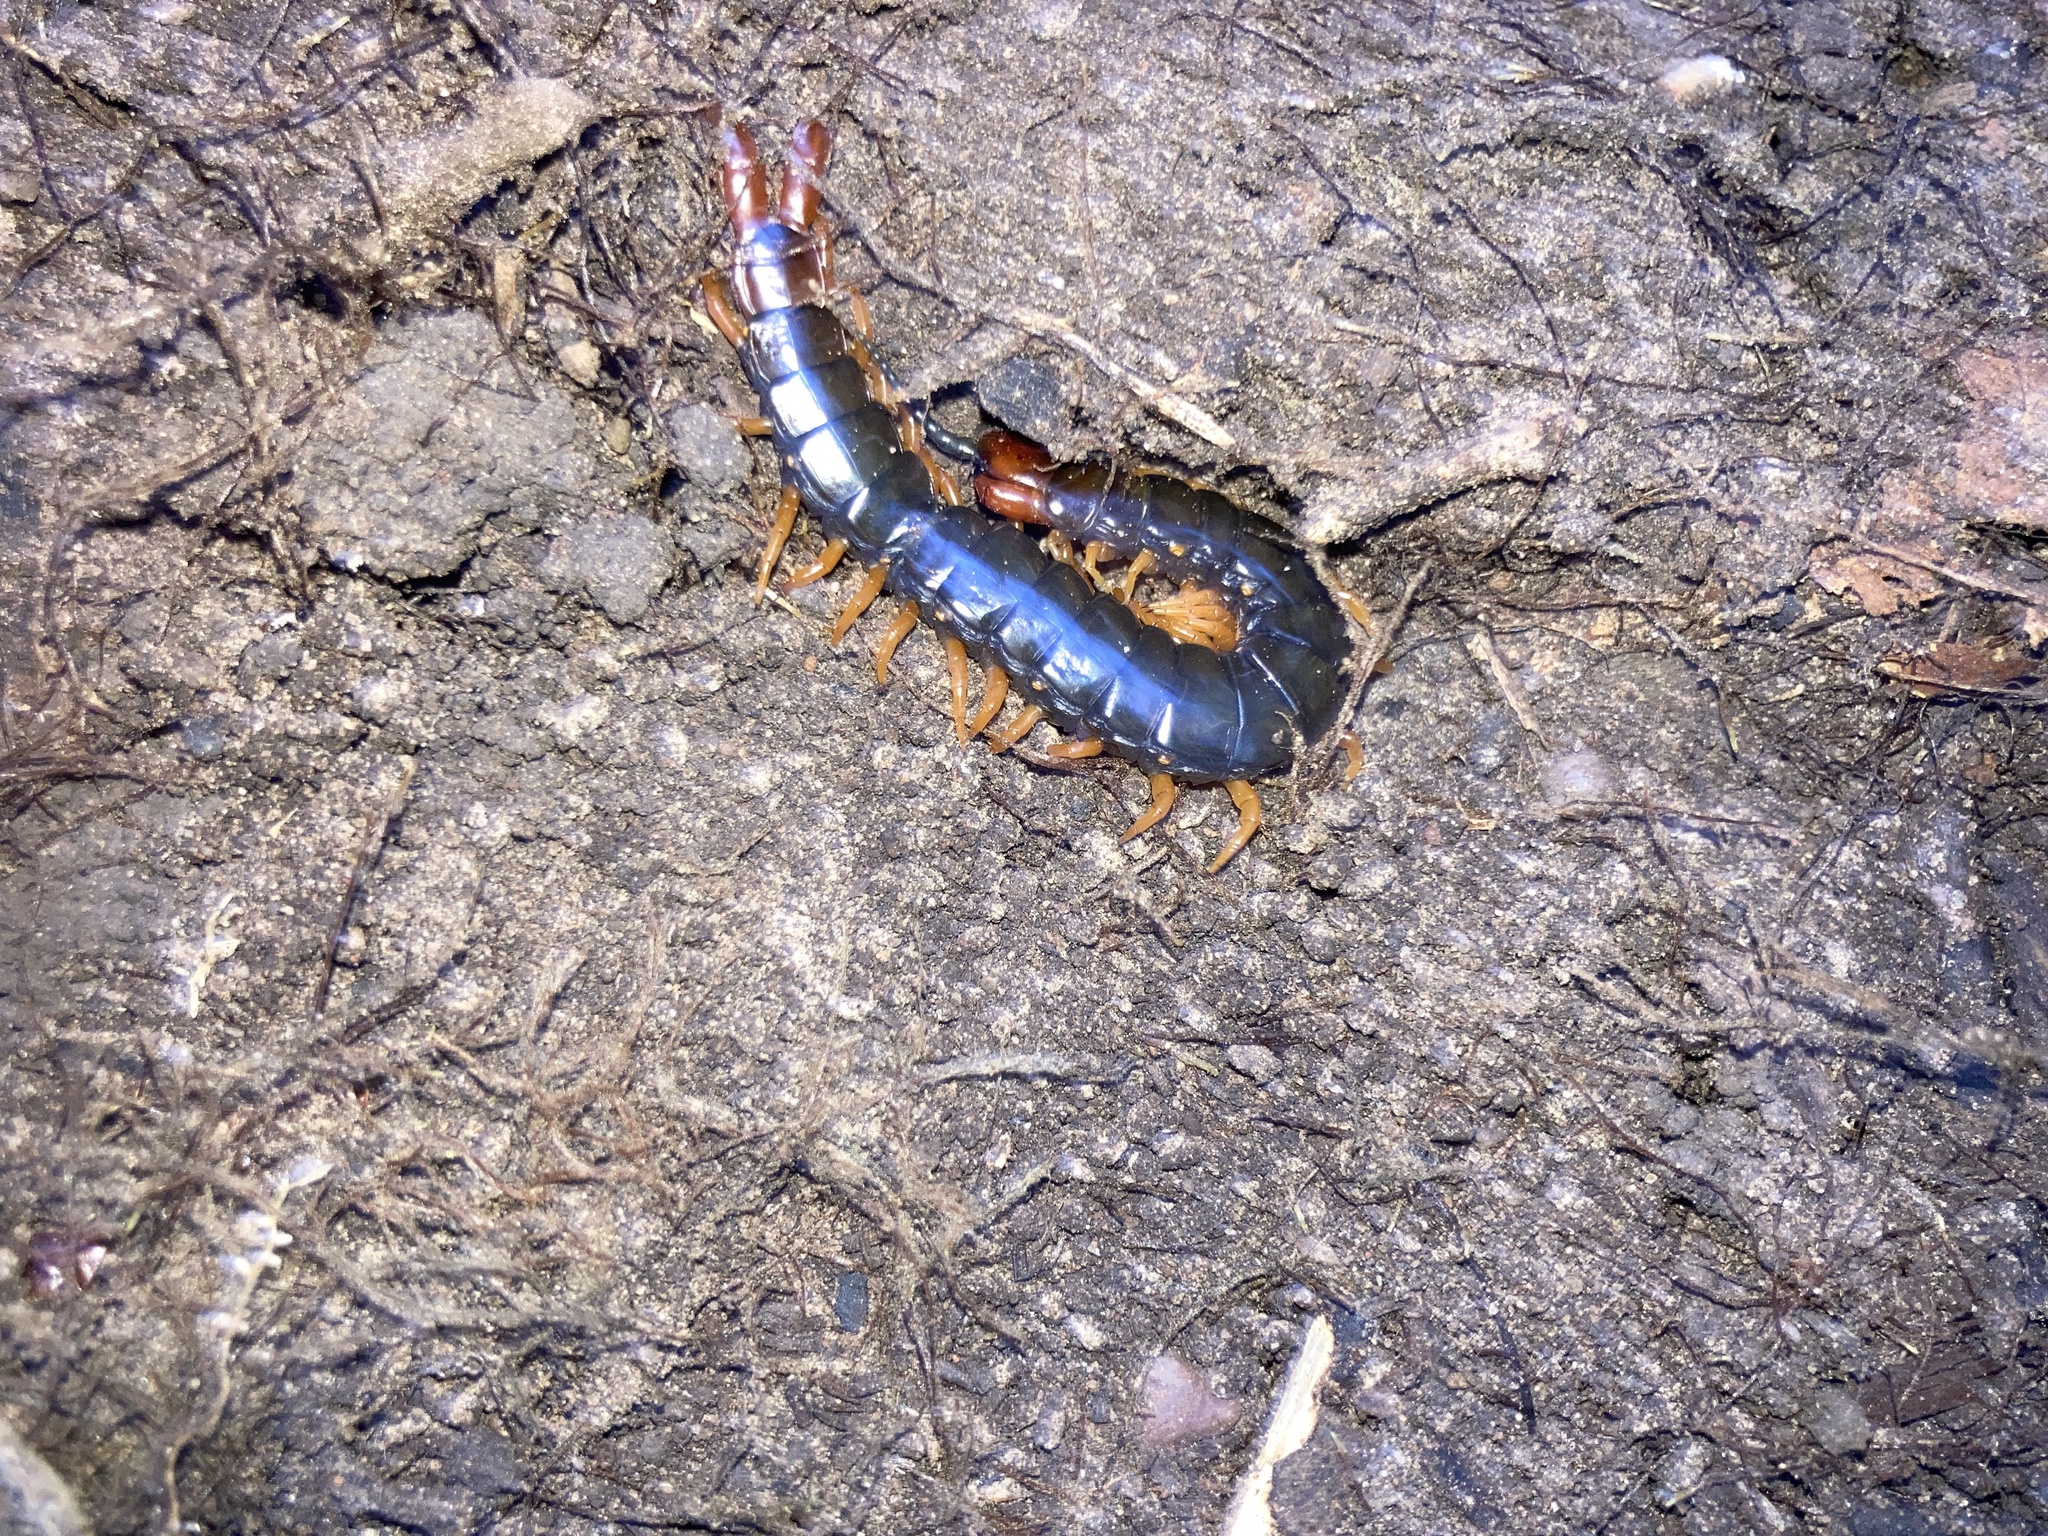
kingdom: Animalia
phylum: Arthropoda
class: Chilopoda
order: Scolopendromorpha
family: Scolopendridae
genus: Cormocephalus
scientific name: Cormocephalus westwoodi
